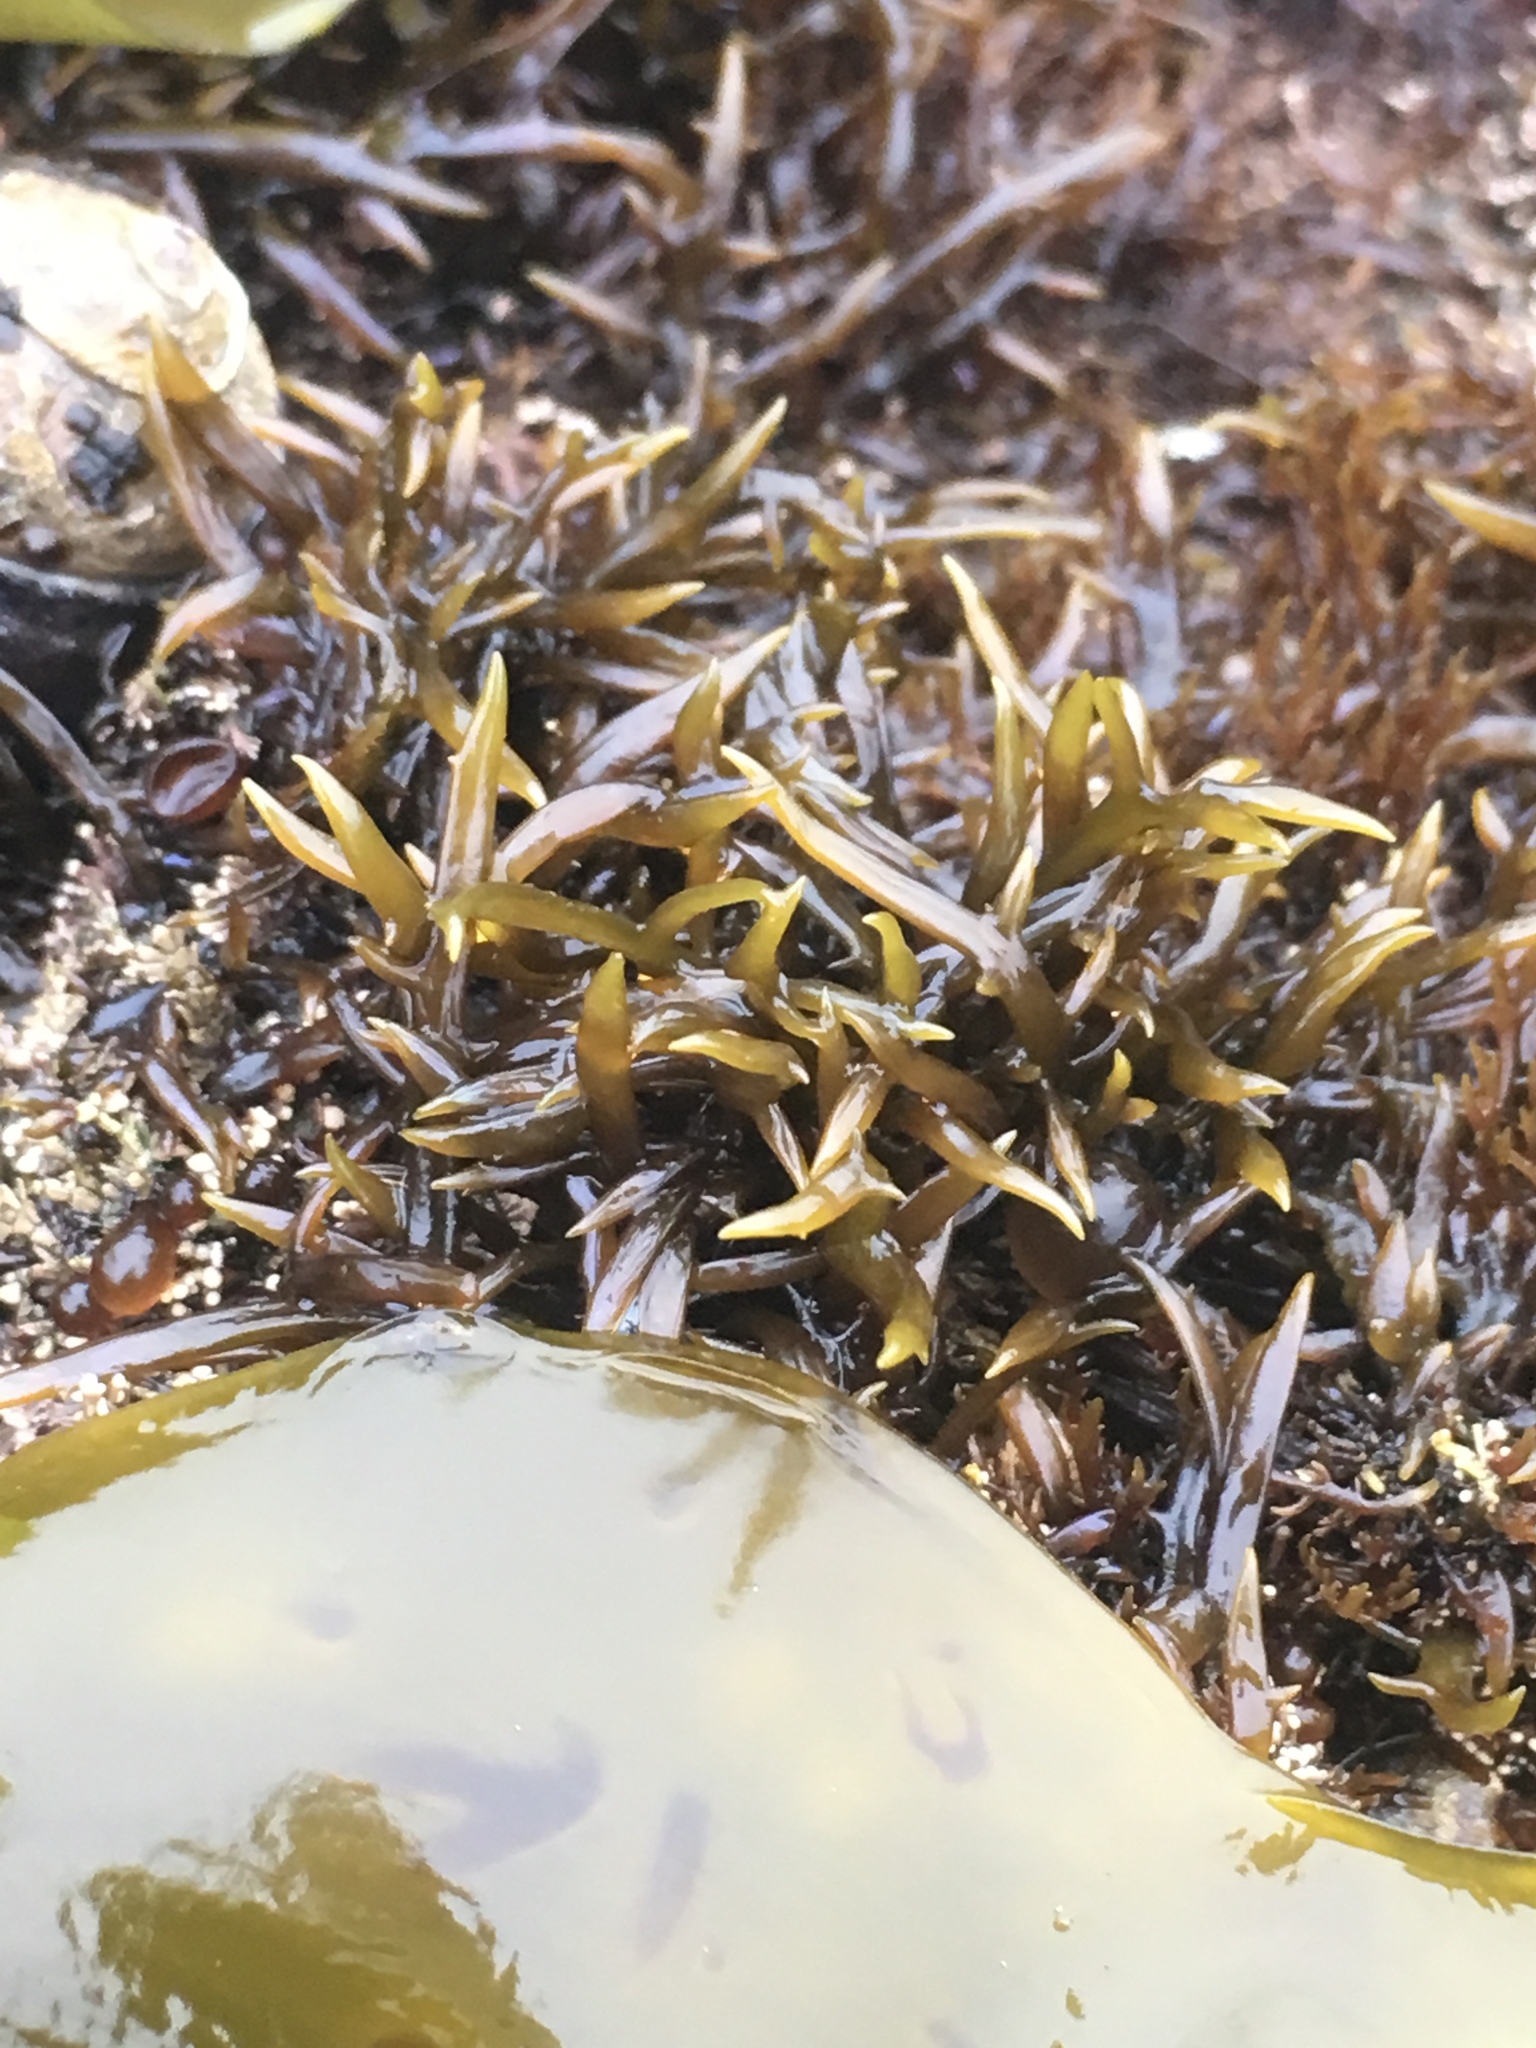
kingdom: Plantae
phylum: Rhodophyta
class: Florideophyceae
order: Gigartinales
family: Gigartinaceae
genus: Chondracanthus
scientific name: Chondracanthus canaliculatus
